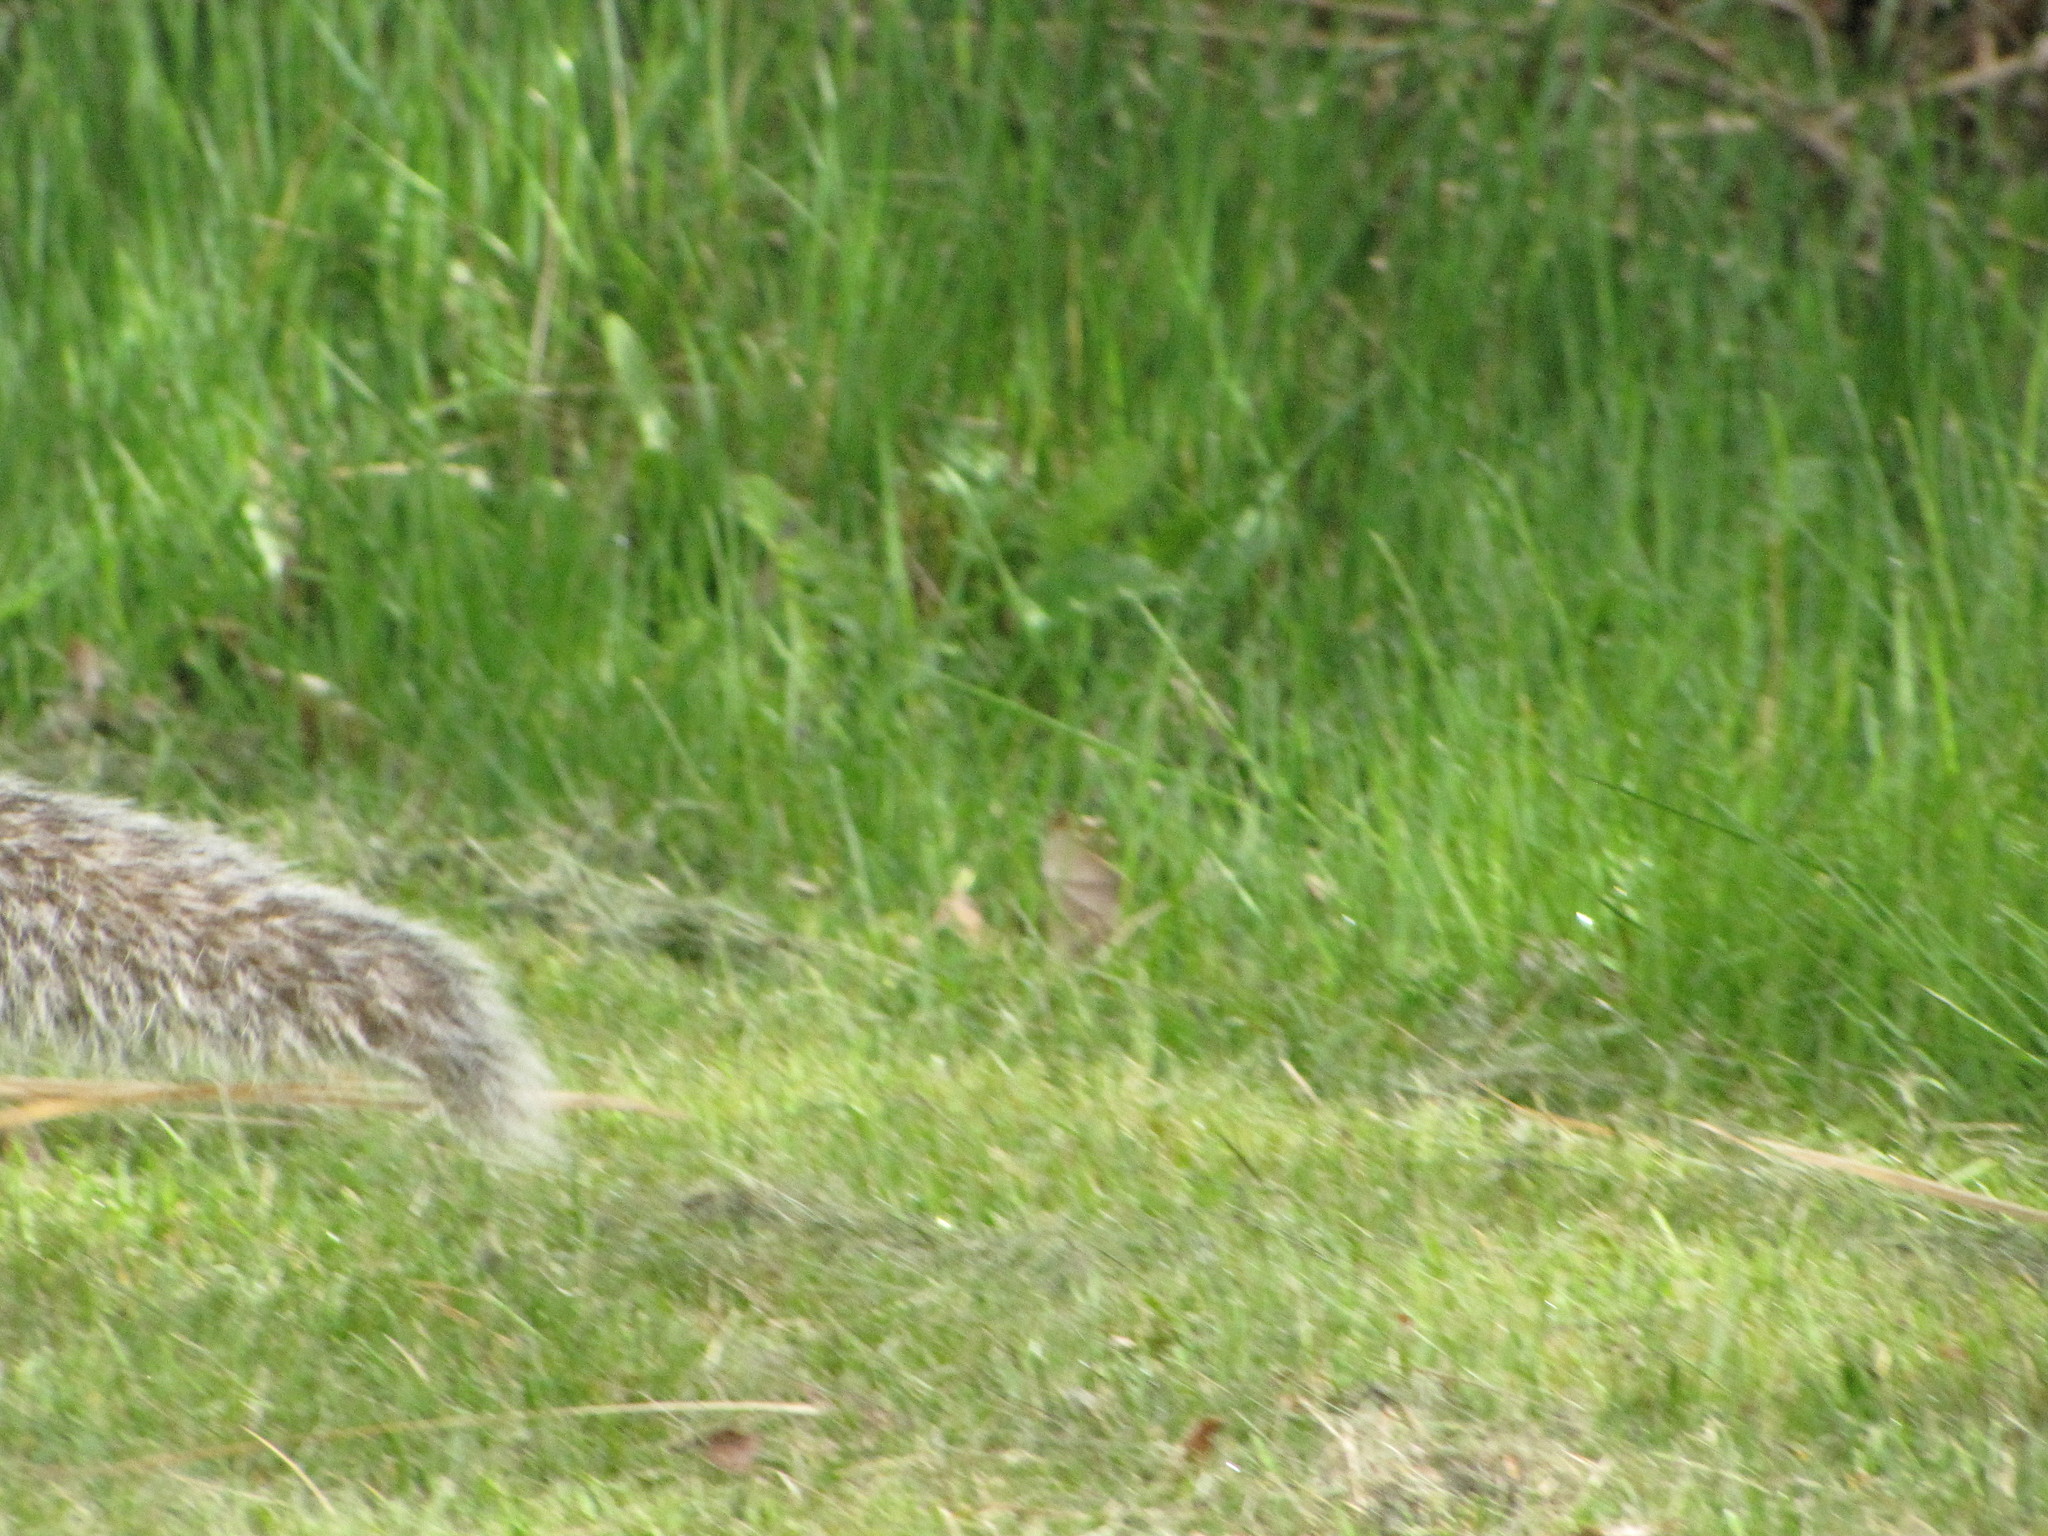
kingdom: Animalia
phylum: Chordata
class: Mammalia
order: Rodentia
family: Sciuridae
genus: Sciurus
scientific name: Sciurus carolinensis
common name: Eastern gray squirrel
